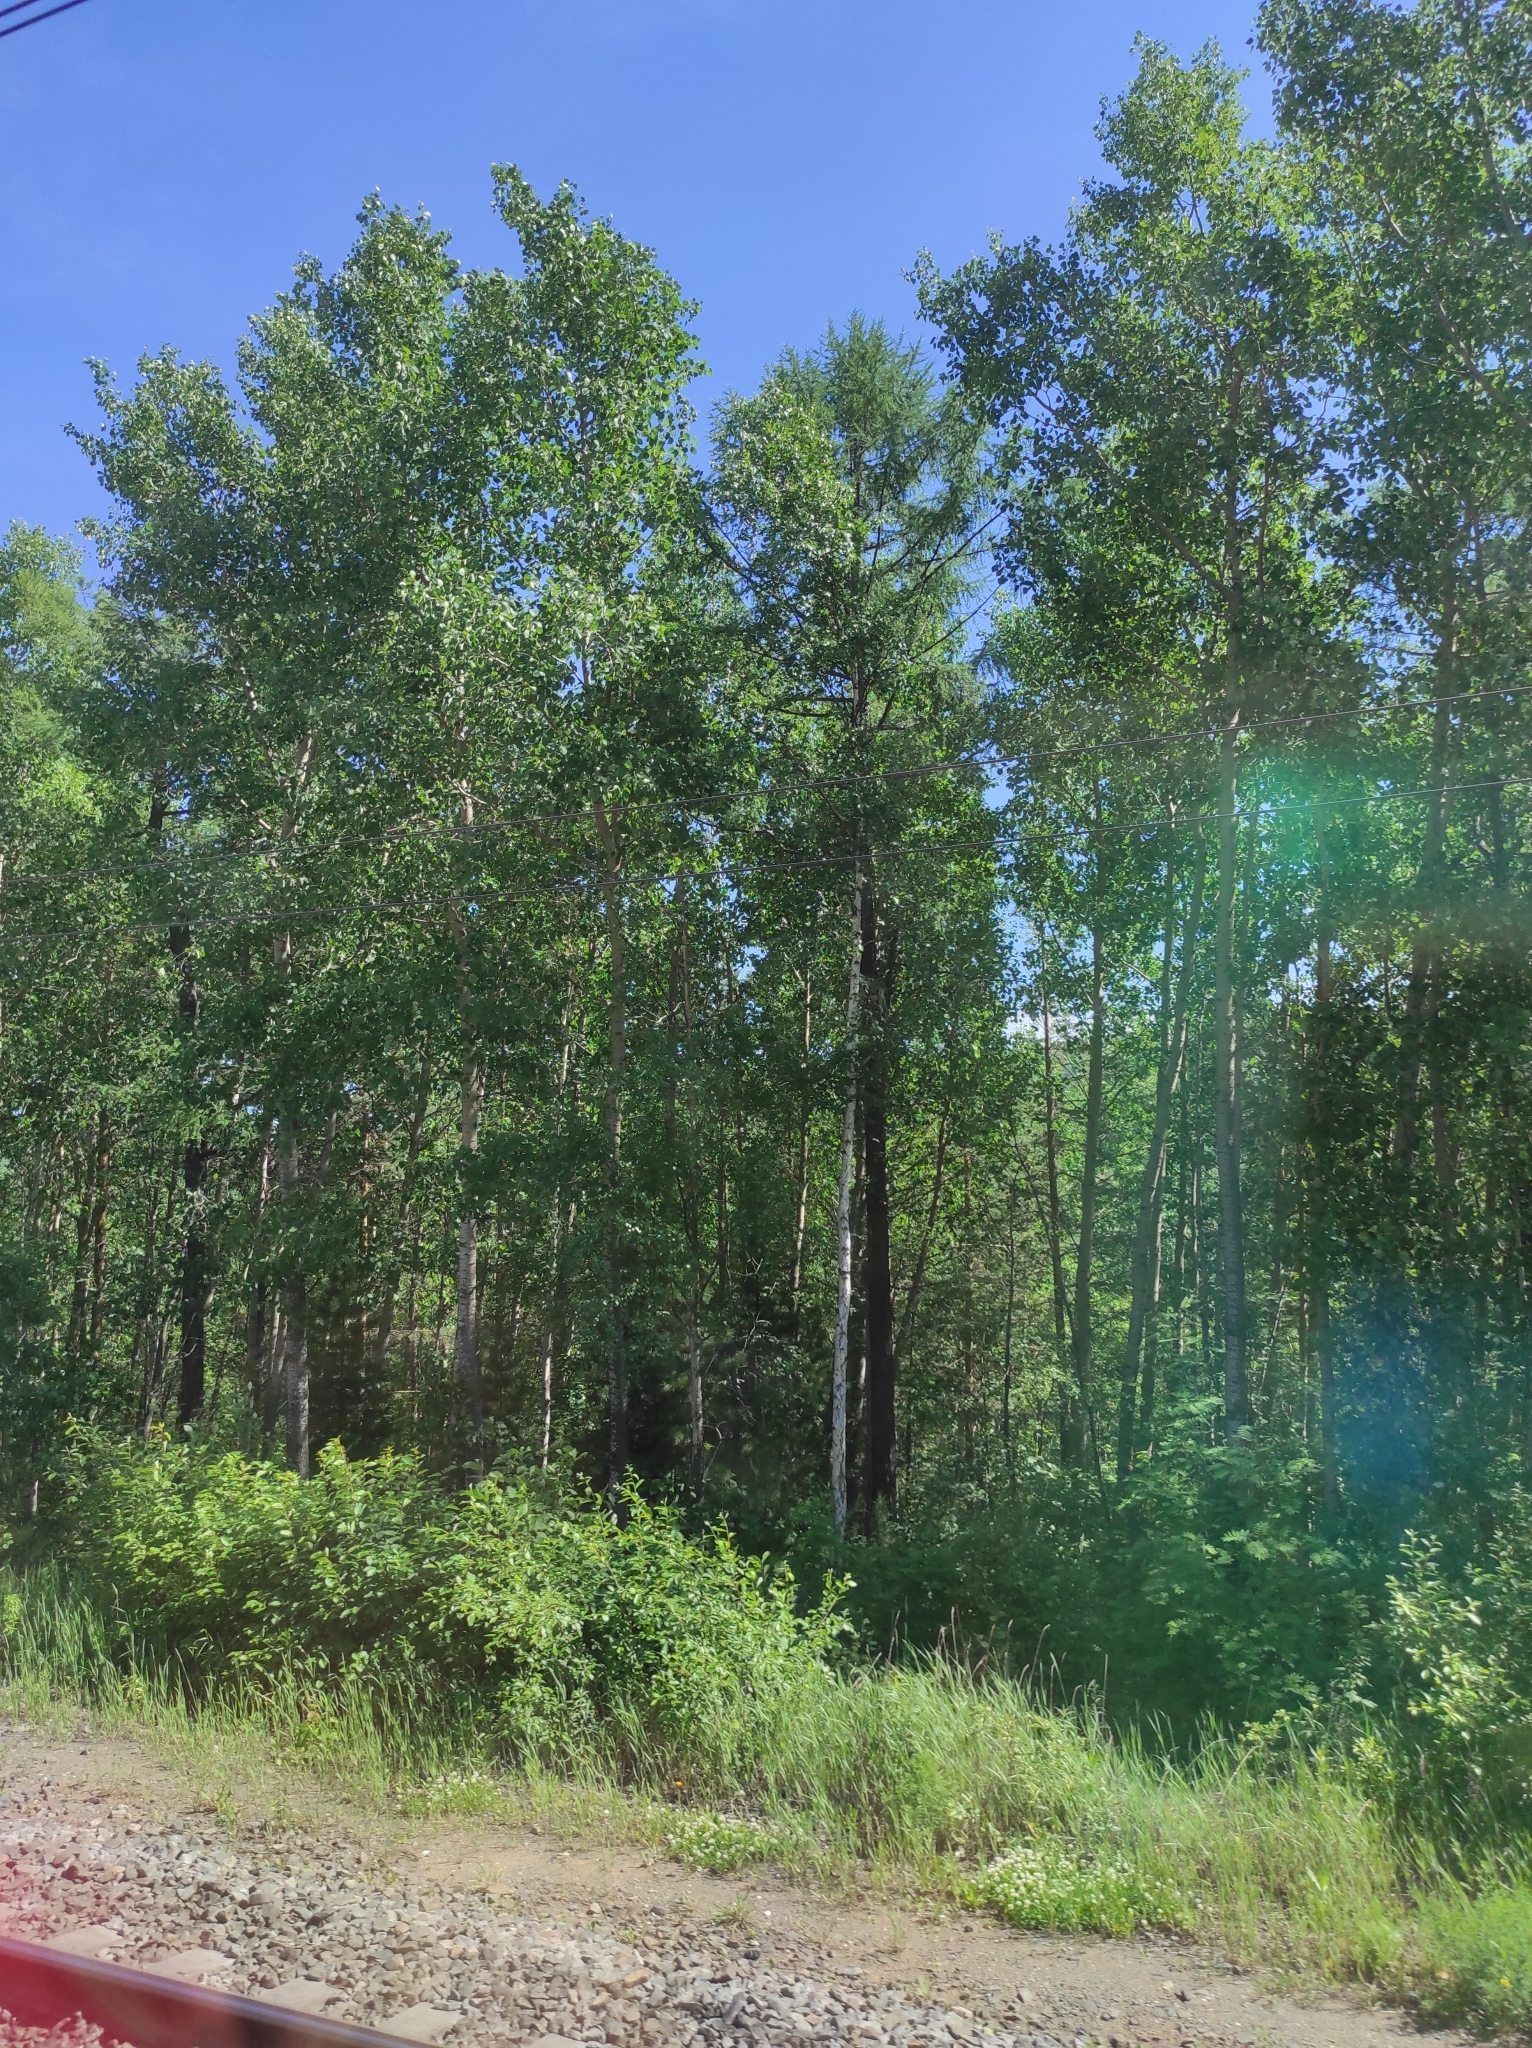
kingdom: Plantae
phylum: Tracheophyta
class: Pinopsida
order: Pinales
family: Pinaceae
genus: Larix
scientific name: Larix sibirica
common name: Siberian larch
